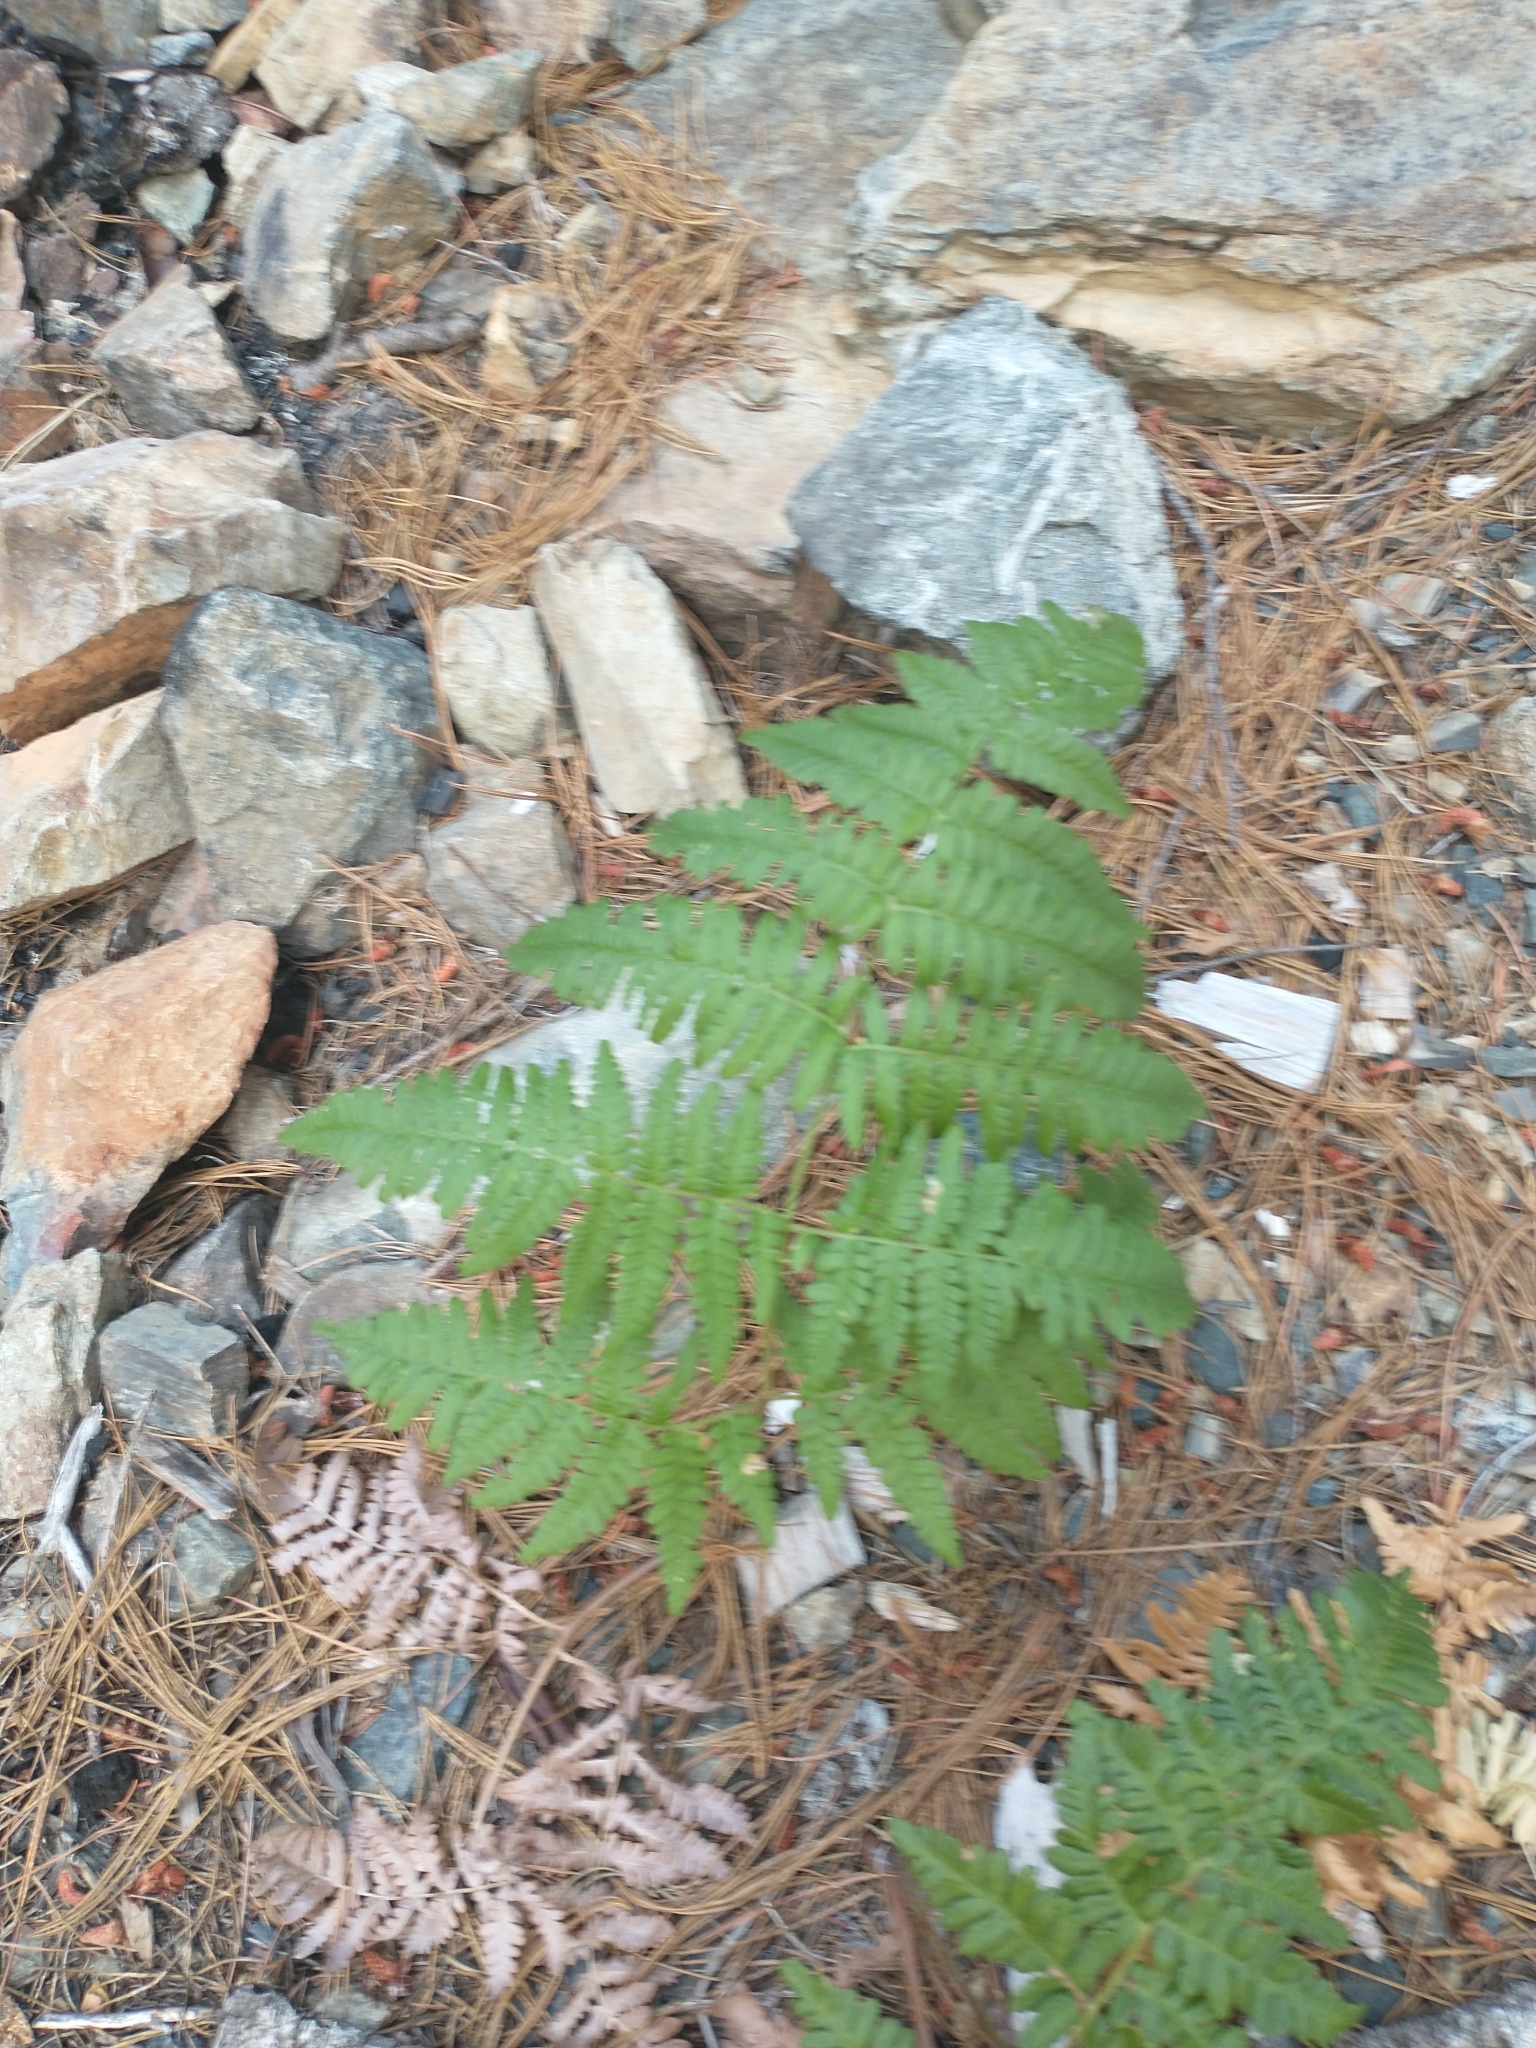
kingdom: Plantae
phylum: Tracheophyta
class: Polypodiopsida
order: Polypodiales
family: Dennstaedtiaceae
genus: Pteridium
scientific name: Pteridium aquilinum
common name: Bracken
